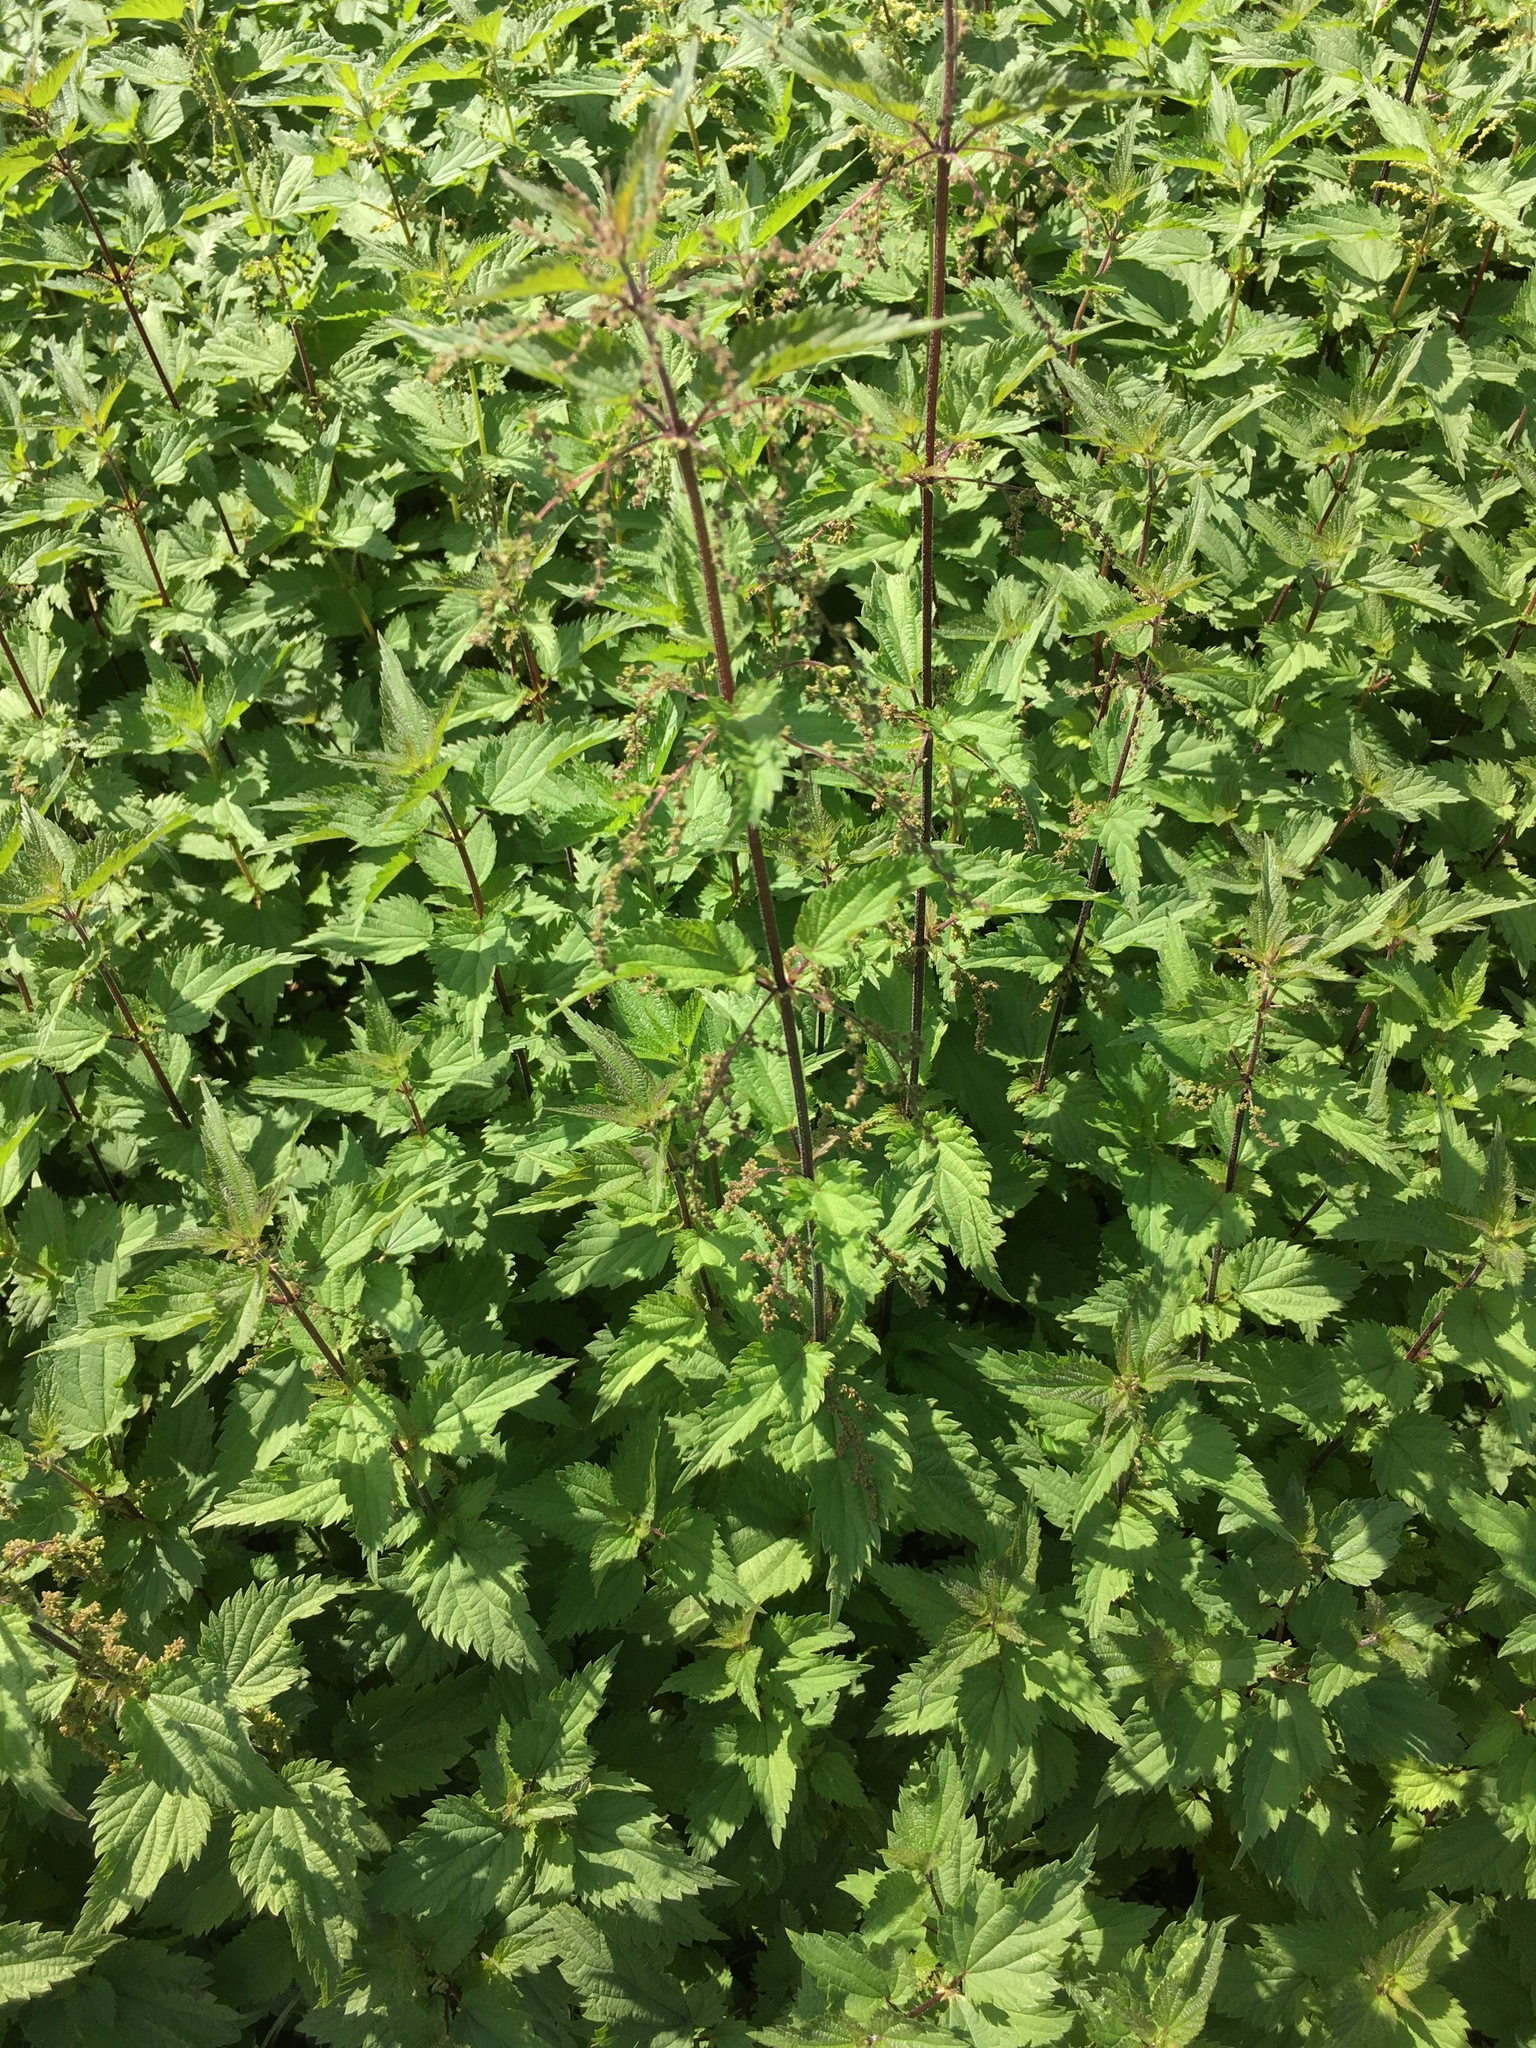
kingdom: Plantae
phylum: Tracheophyta
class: Magnoliopsida
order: Rosales
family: Urticaceae
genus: Urtica
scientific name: Urtica dioica
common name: Common nettle
